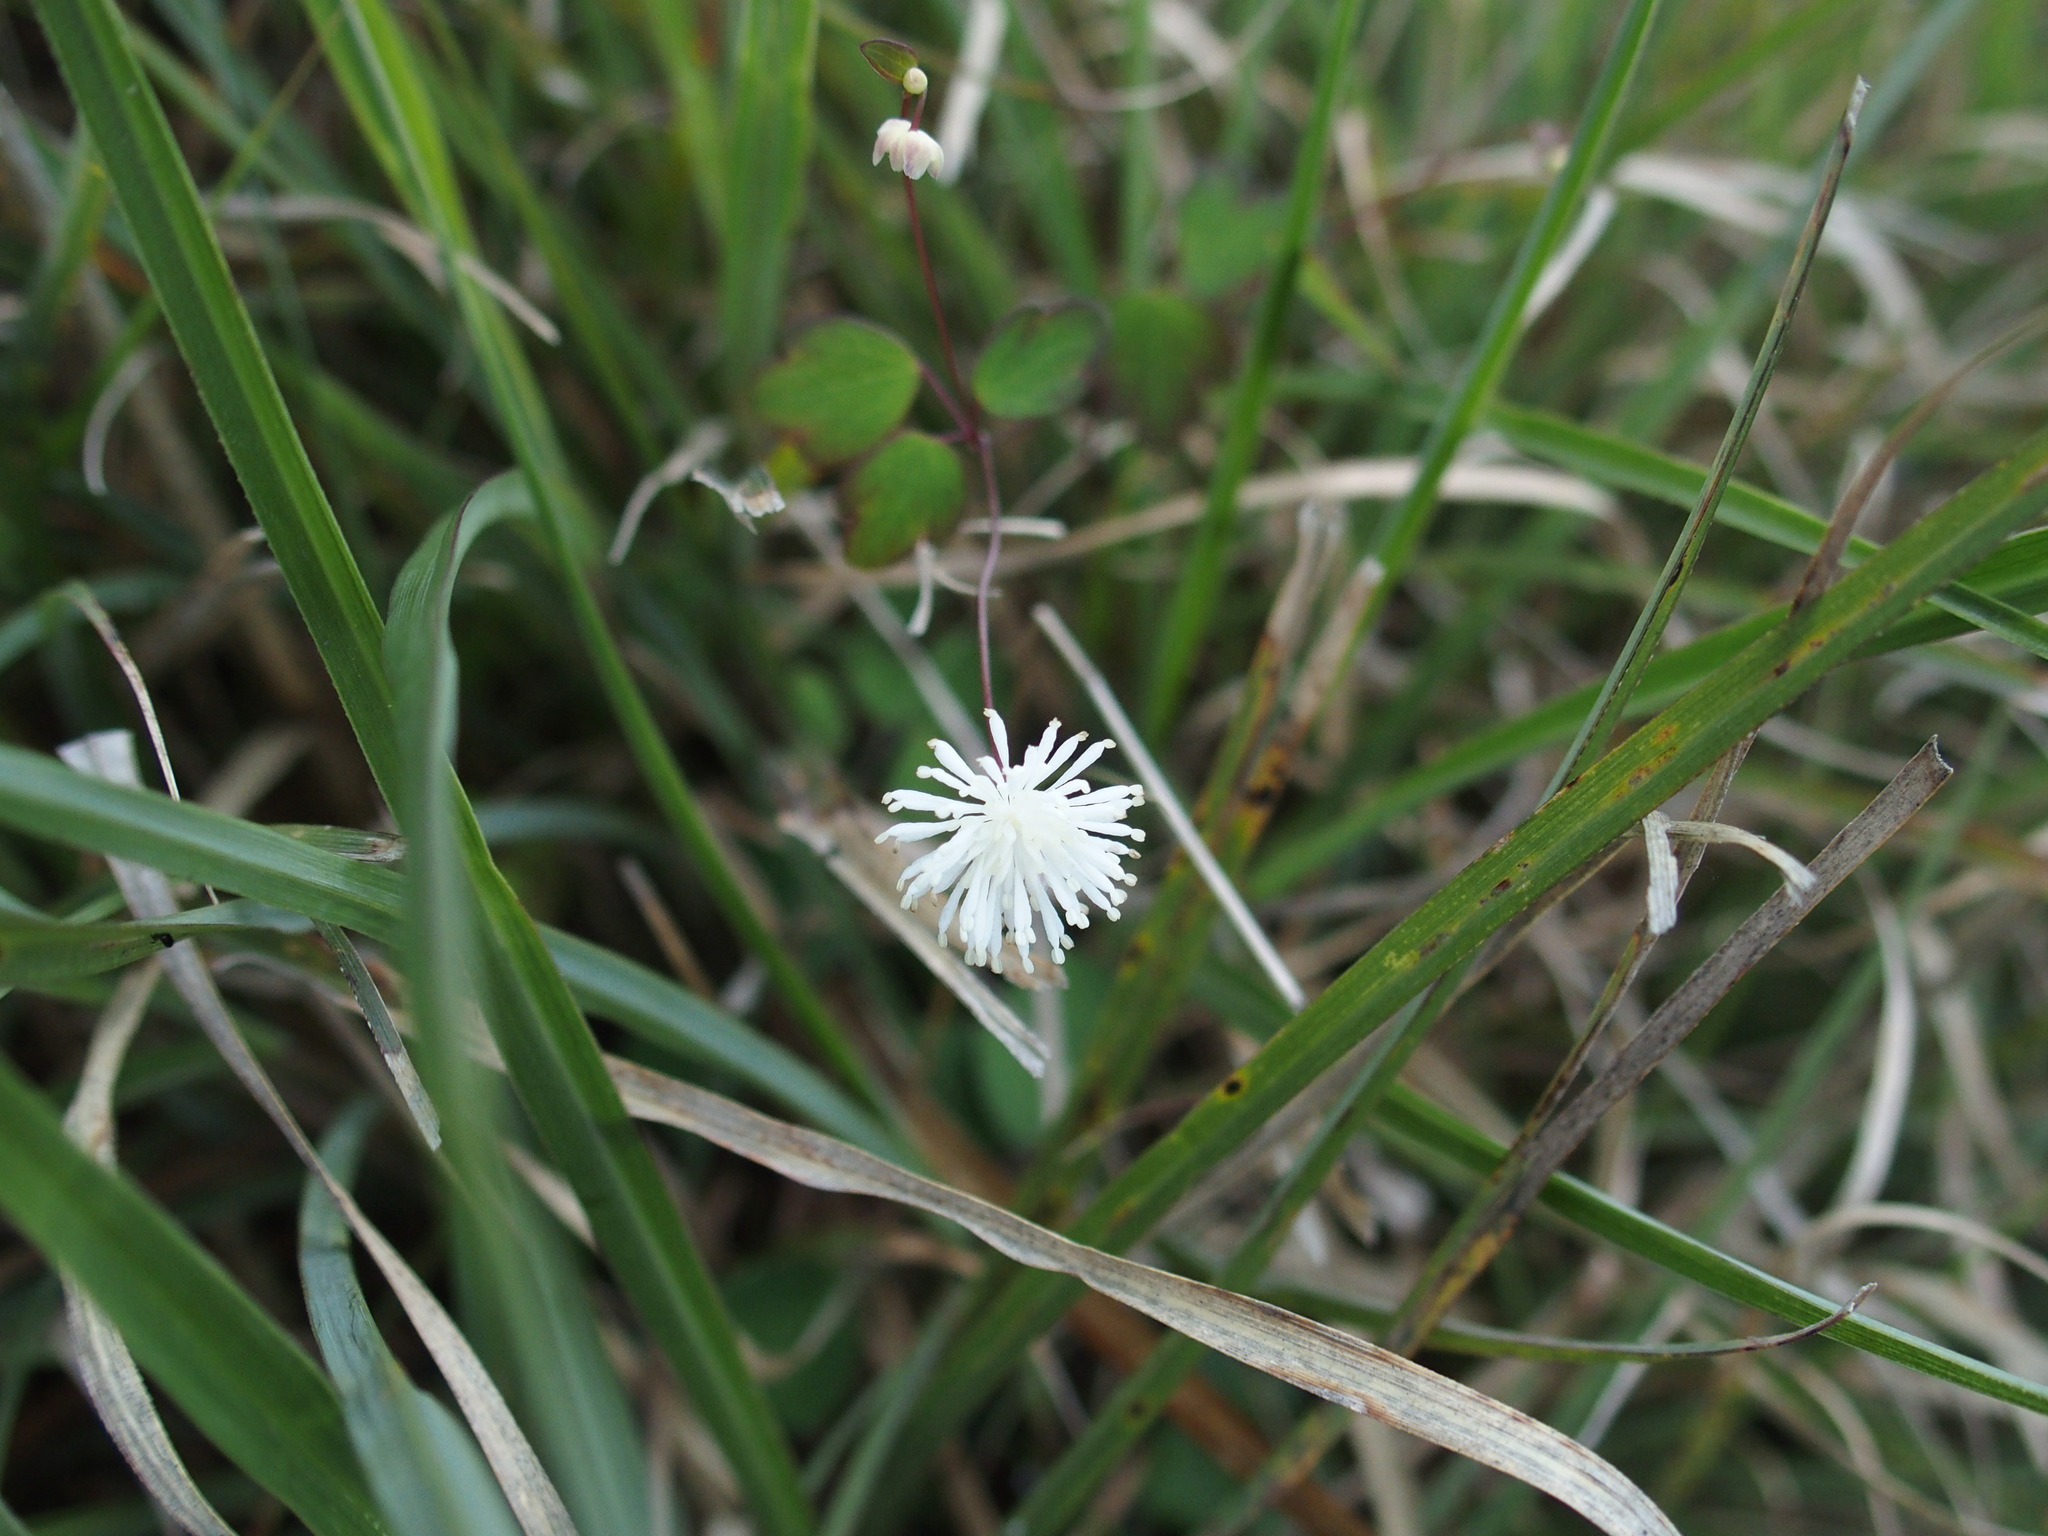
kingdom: Plantae
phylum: Tracheophyta
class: Magnoliopsida
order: Ranunculales
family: Ranunculaceae
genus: Thalictrum
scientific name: Thalictrum urbaini
